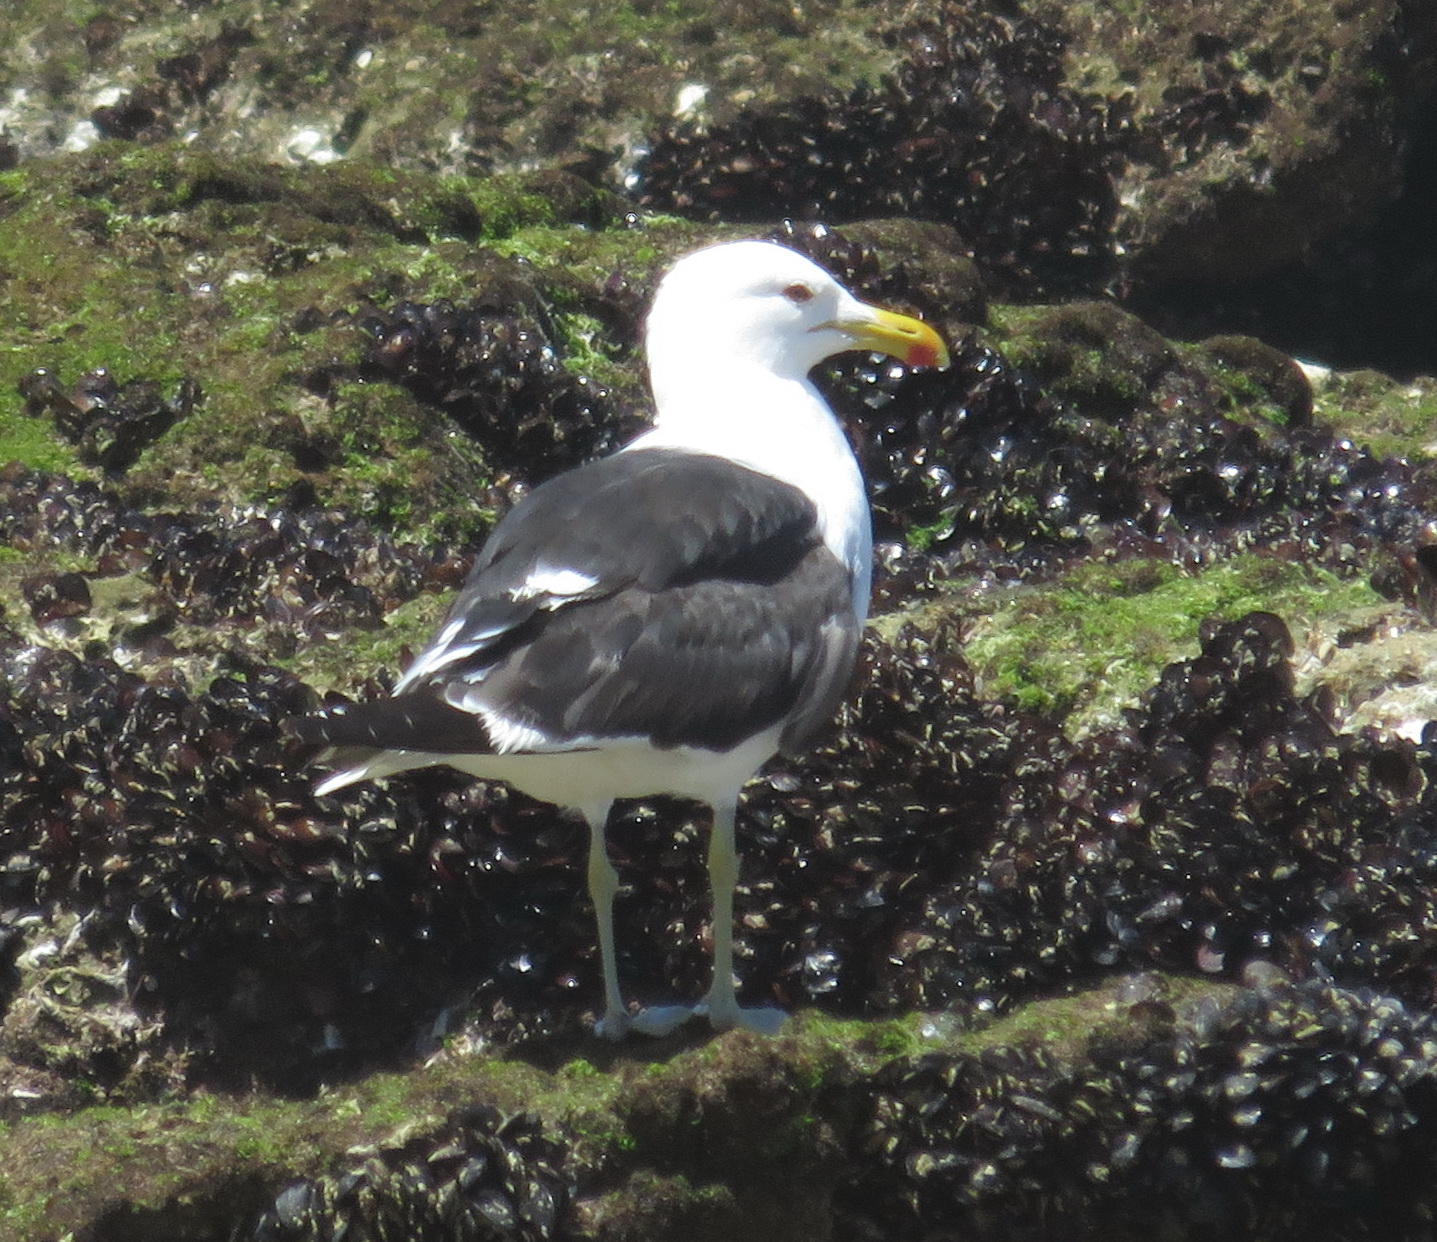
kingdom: Animalia
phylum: Chordata
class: Aves
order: Charadriiformes
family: Laridae
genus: Larus
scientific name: Larus dominicanus
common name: Kelp gull
